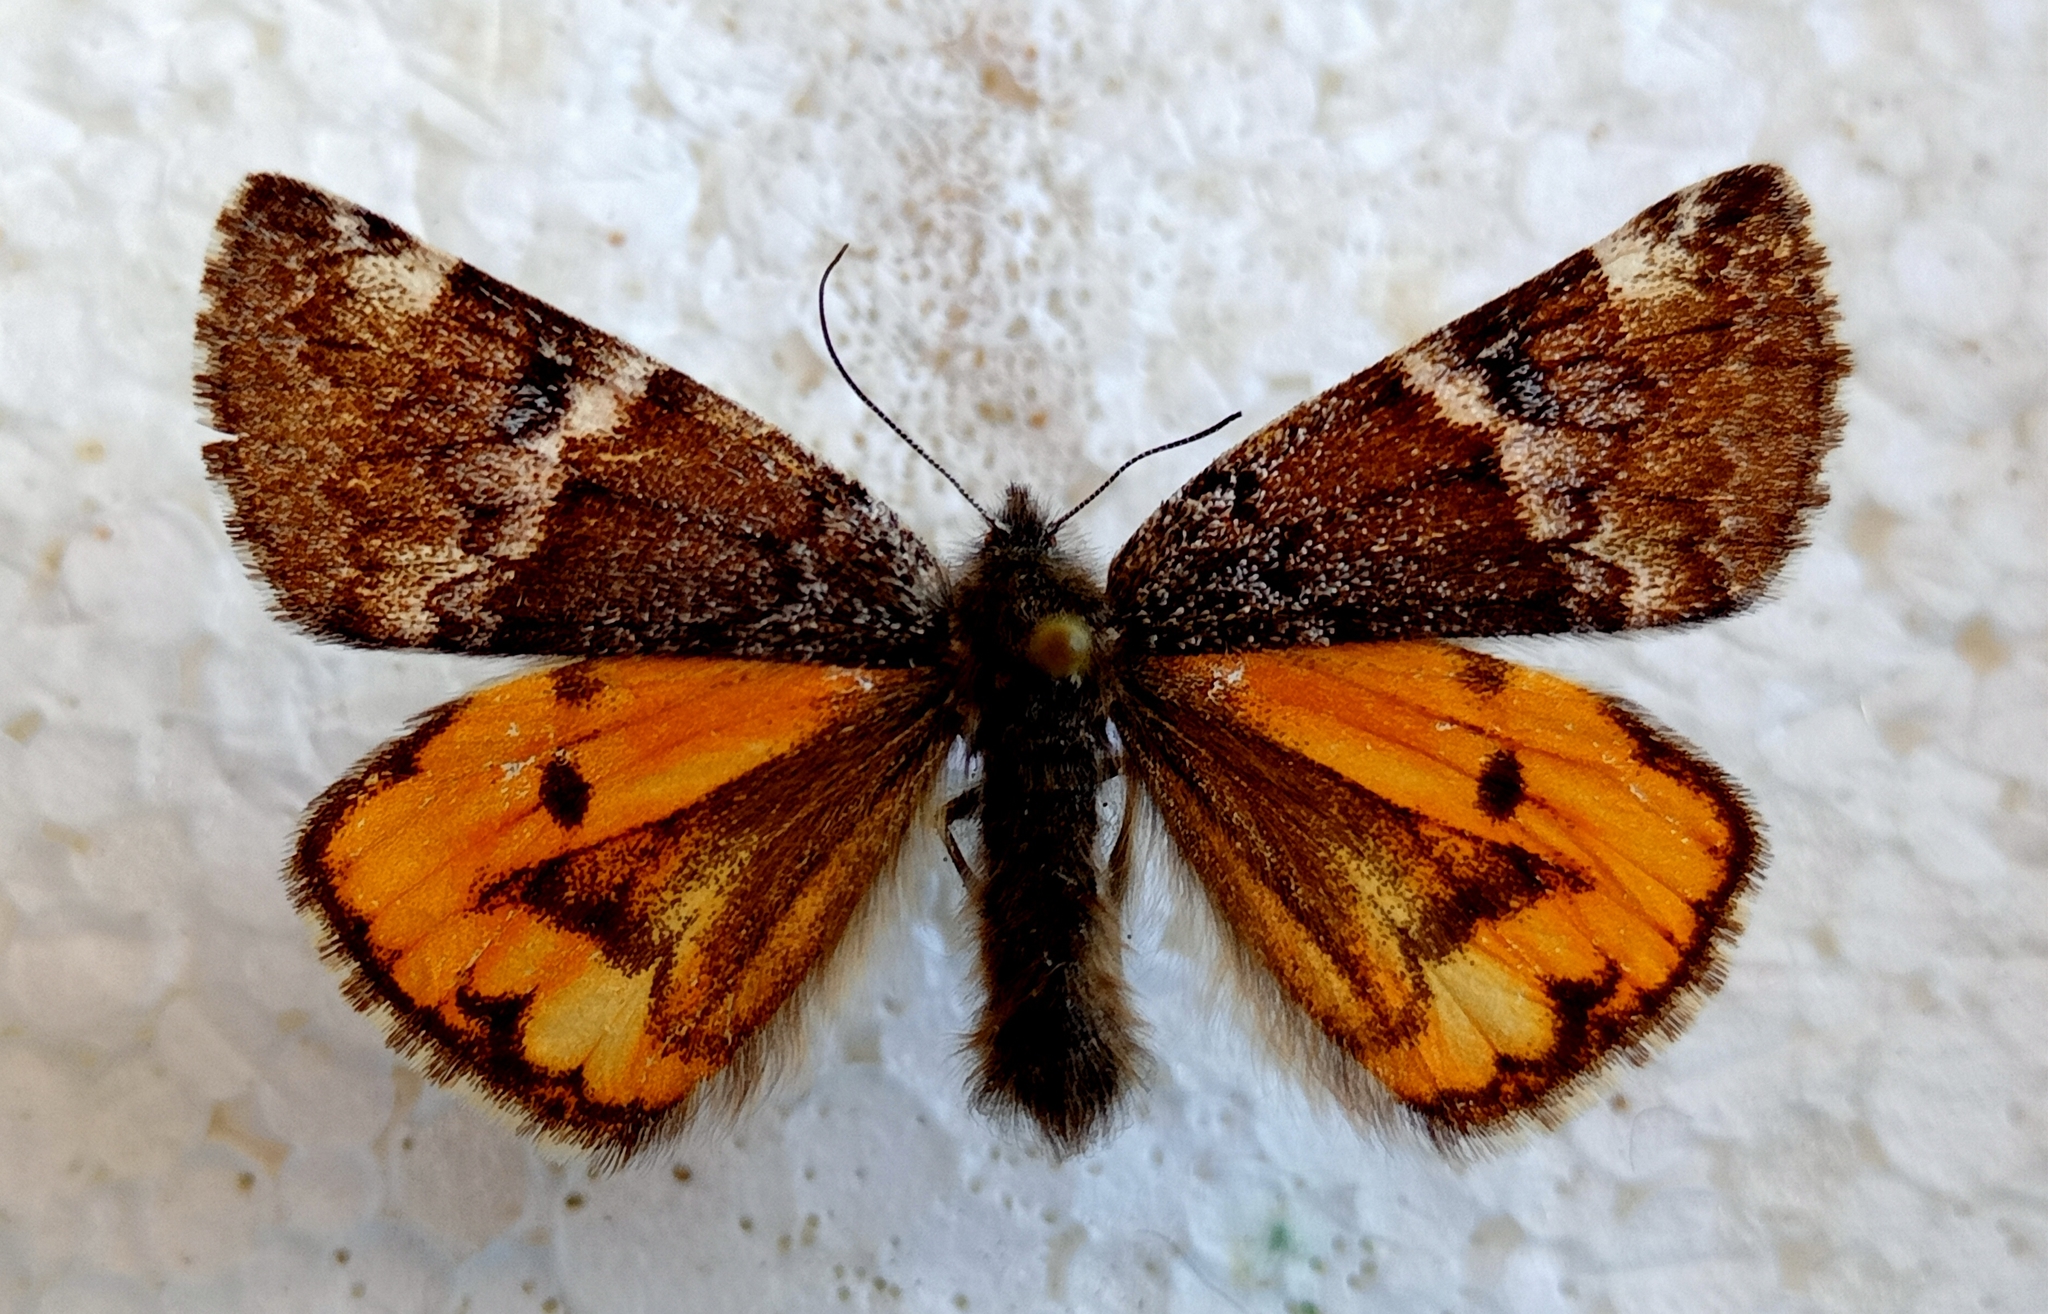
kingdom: Animalia
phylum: Arthropoda
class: Insecta
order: Lepidoptera
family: Geometridae
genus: Archiearis
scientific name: Archiearis parthenias
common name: Orange underwing
